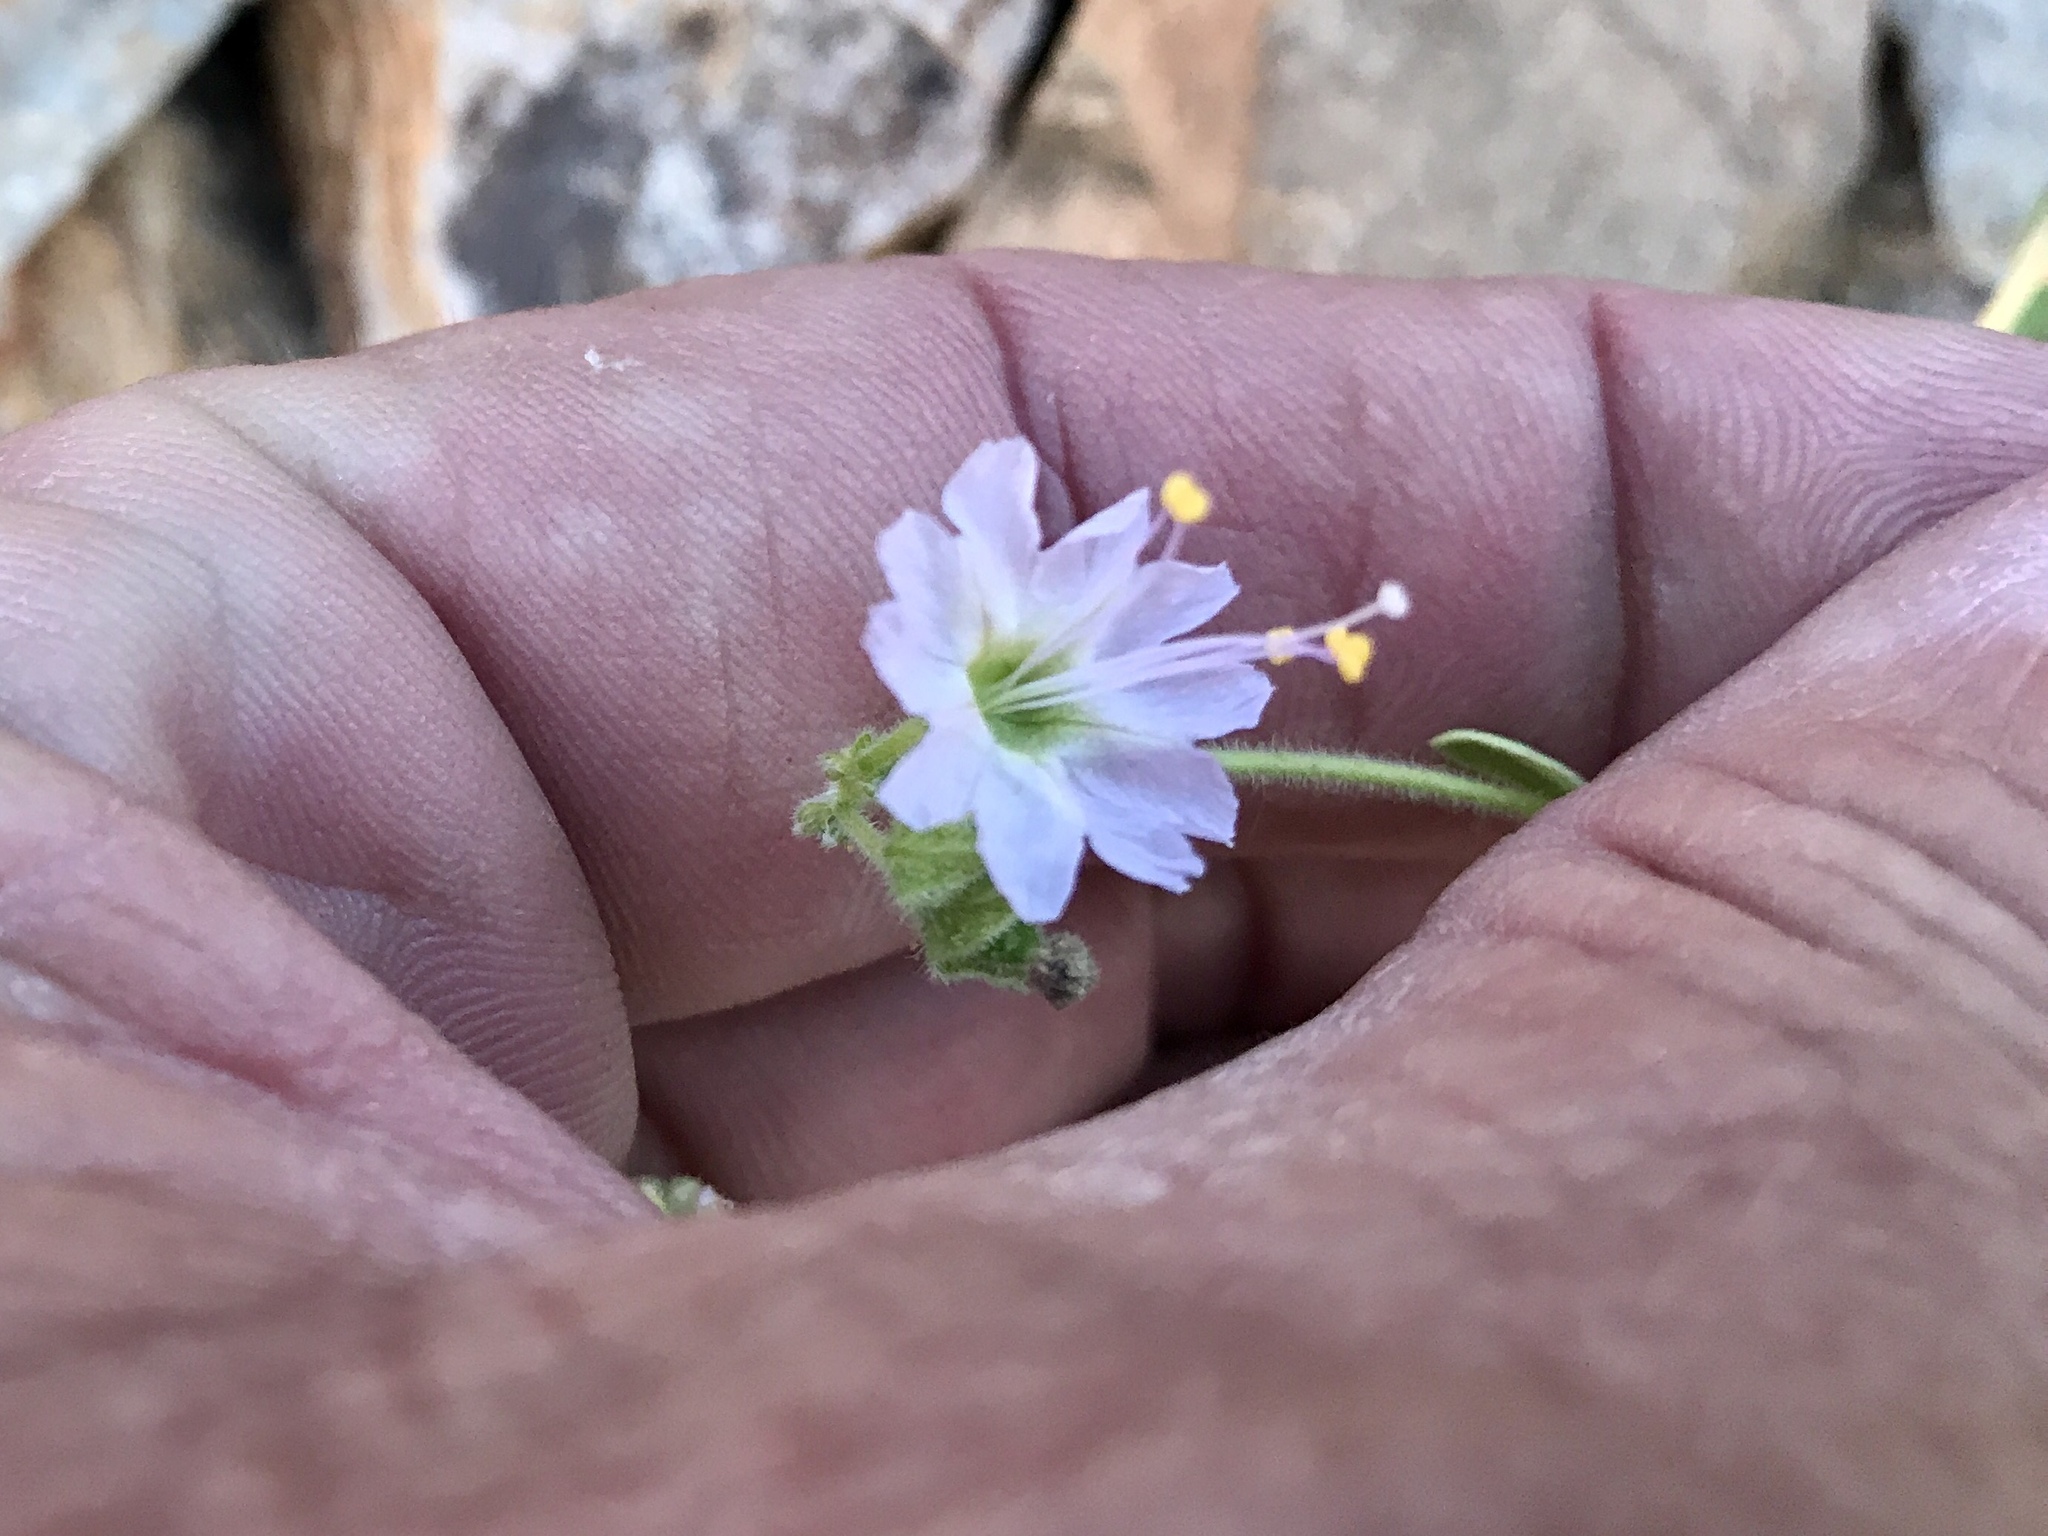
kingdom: Plantae
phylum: Tracheophyta
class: Magnoliopsida
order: Caryophyllales
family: Nyctaginaceae
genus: Mirabilis
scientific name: Mirabilis laevis
